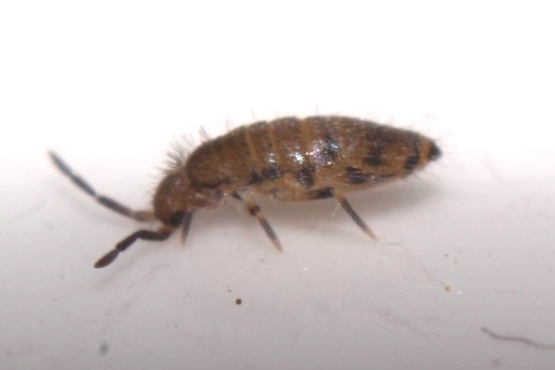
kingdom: Animalia
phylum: Arthropoda
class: Collembola
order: Entomobryomorpha
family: Entomobryidae
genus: Willowsia
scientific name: Willowsia nigromaculata
